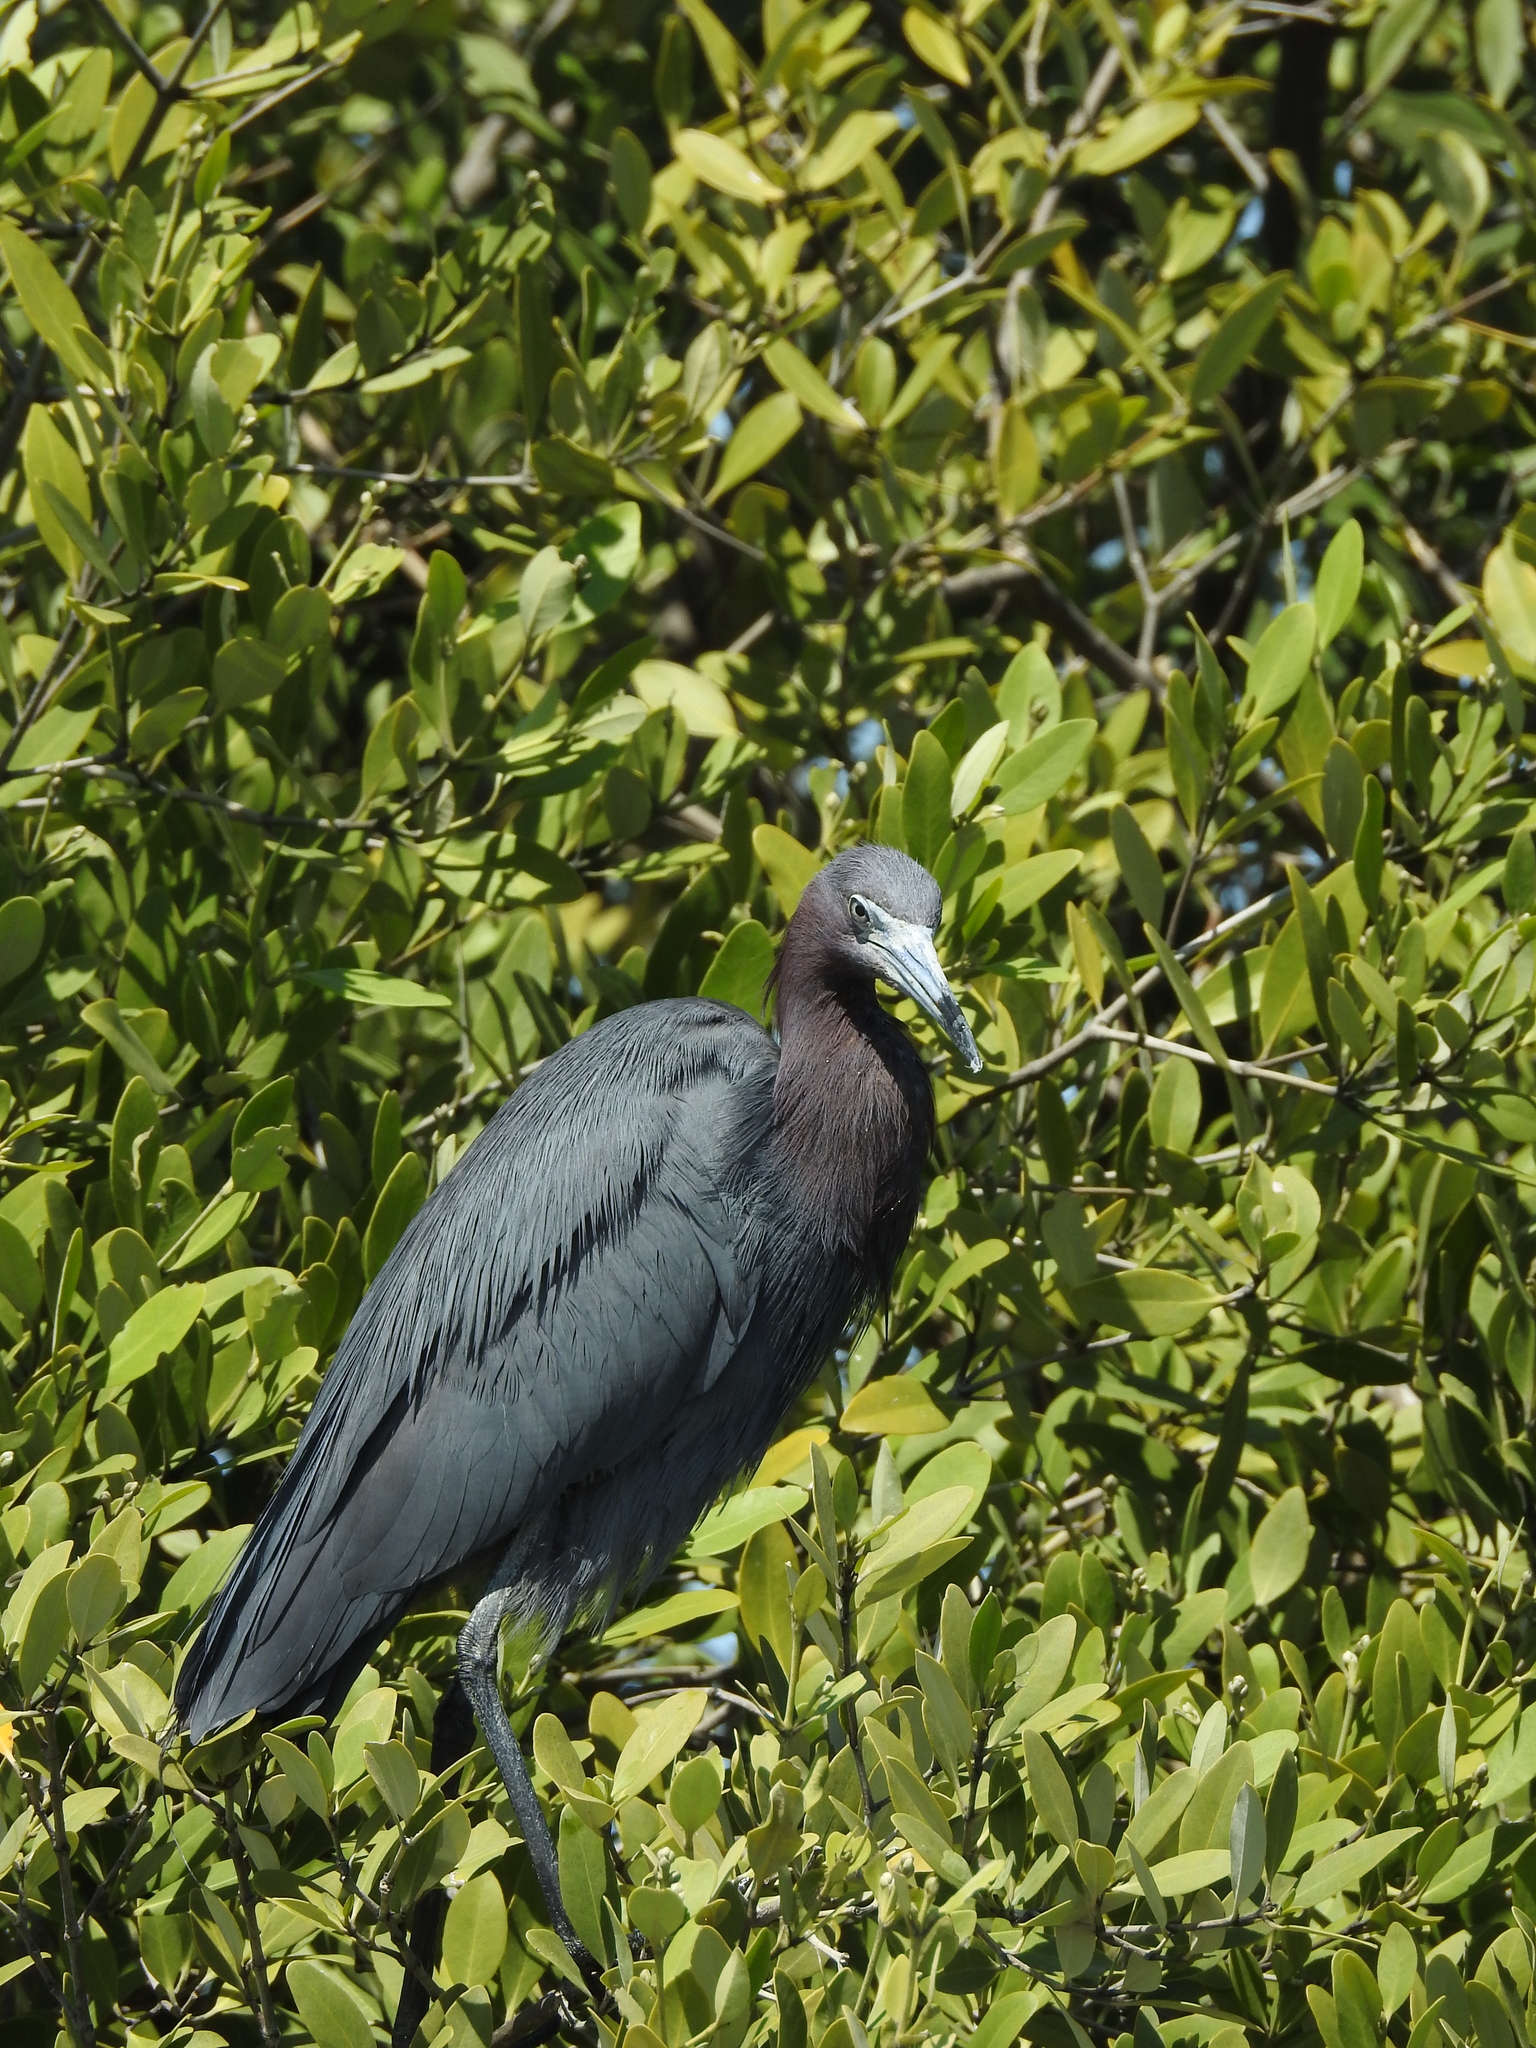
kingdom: Animalia
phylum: Chordata
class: Aves
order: Pelecaniformes
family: Ardeidae
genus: Egretta
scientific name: Egretta caerulea
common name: Little blue heron
